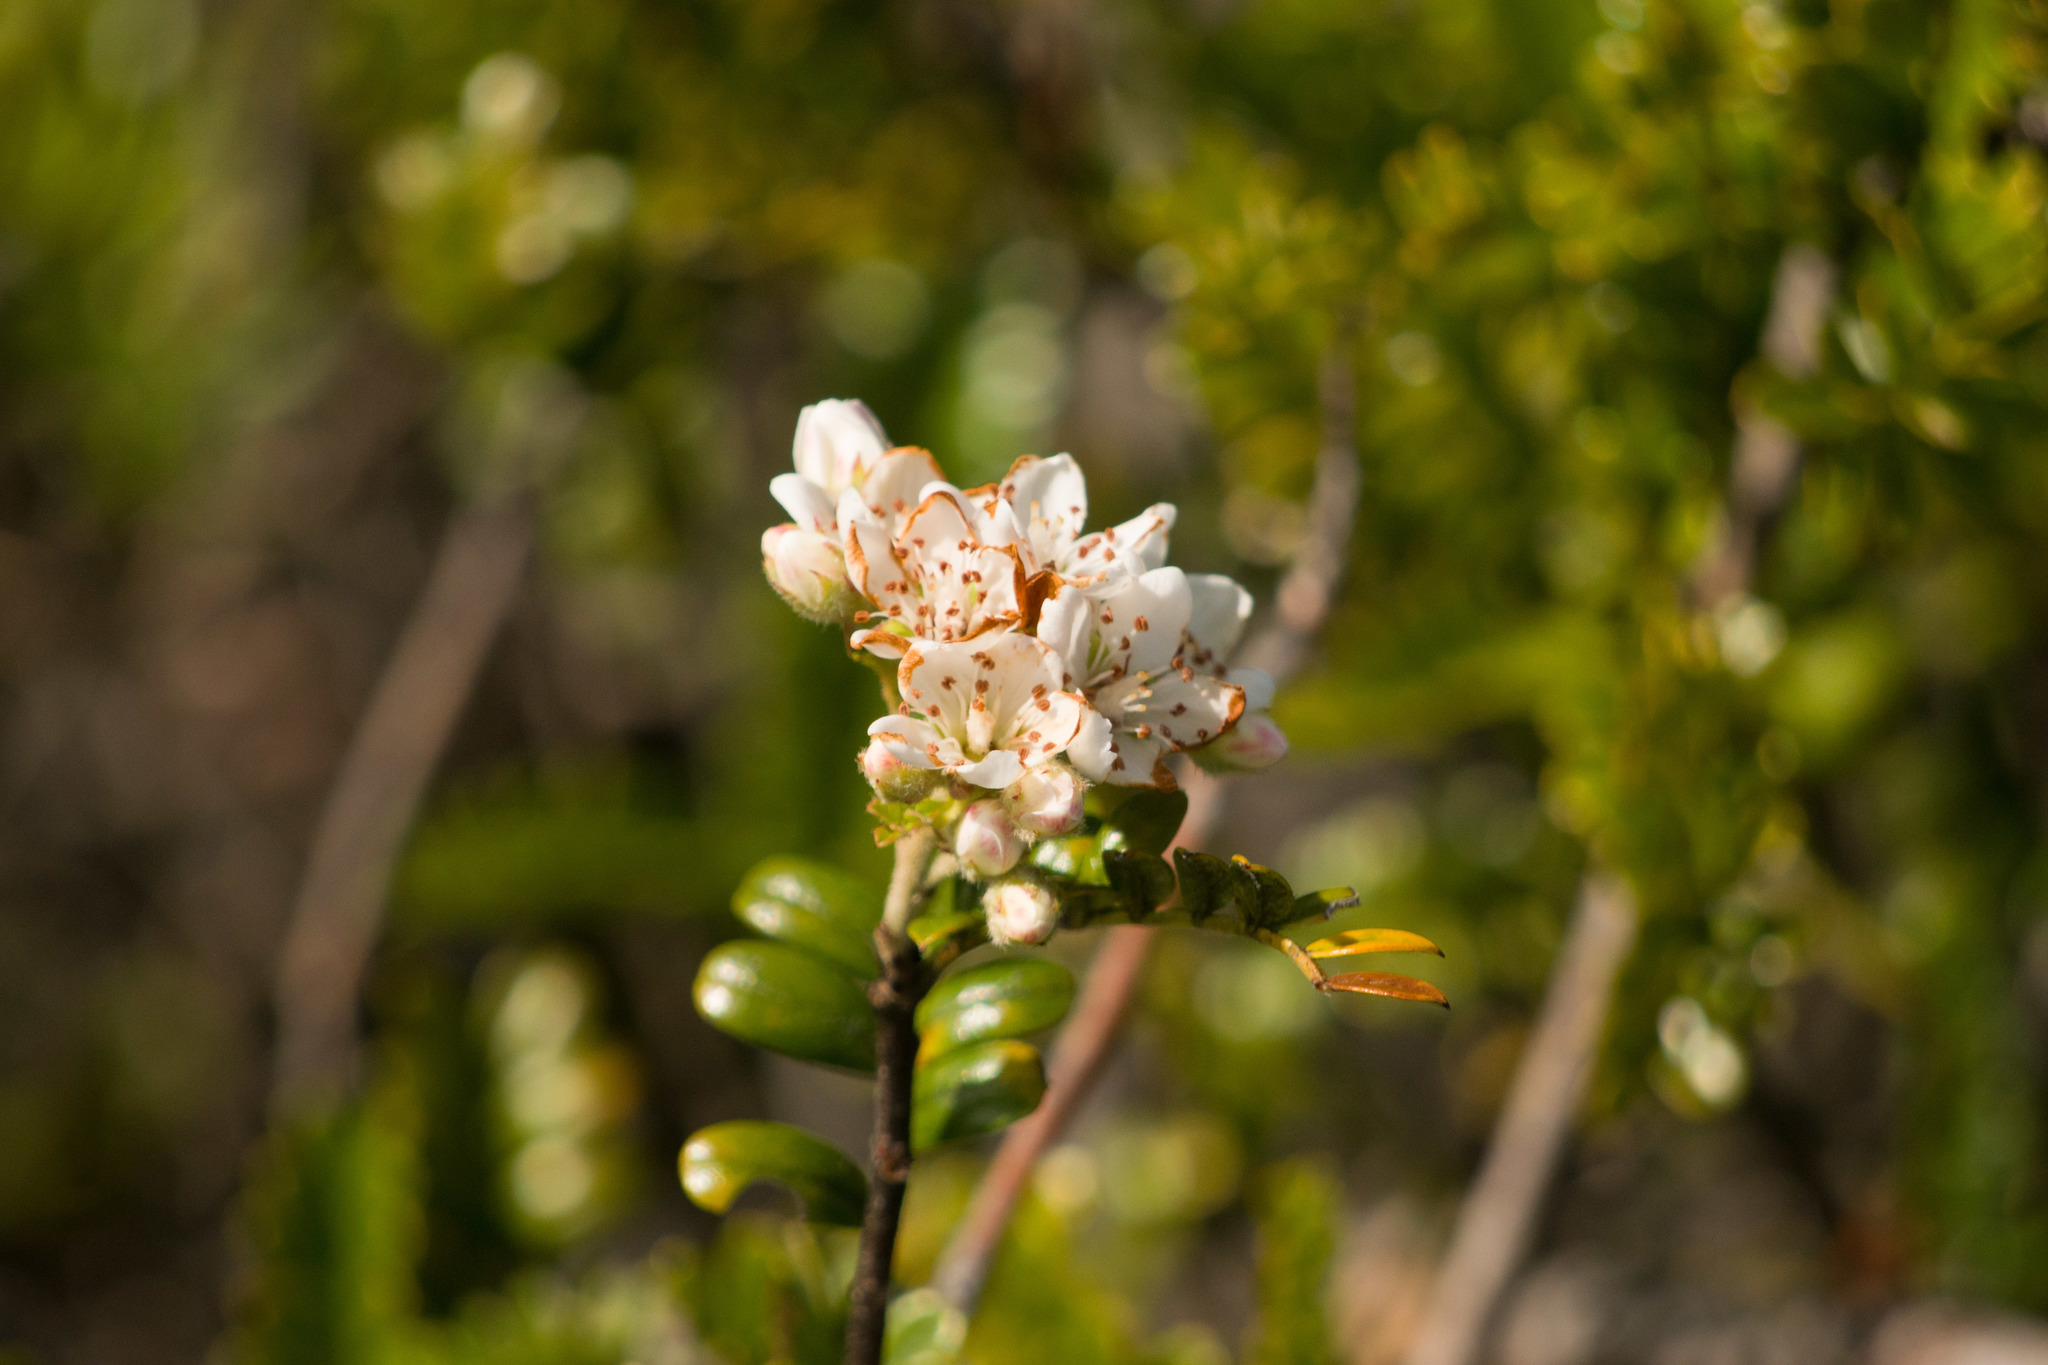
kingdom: Plantae
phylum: Tracheophyta
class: Magnoliopsida
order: Rosales
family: Rosaceae
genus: Osteomeles
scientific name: Osteomeles anthyllidifolia
